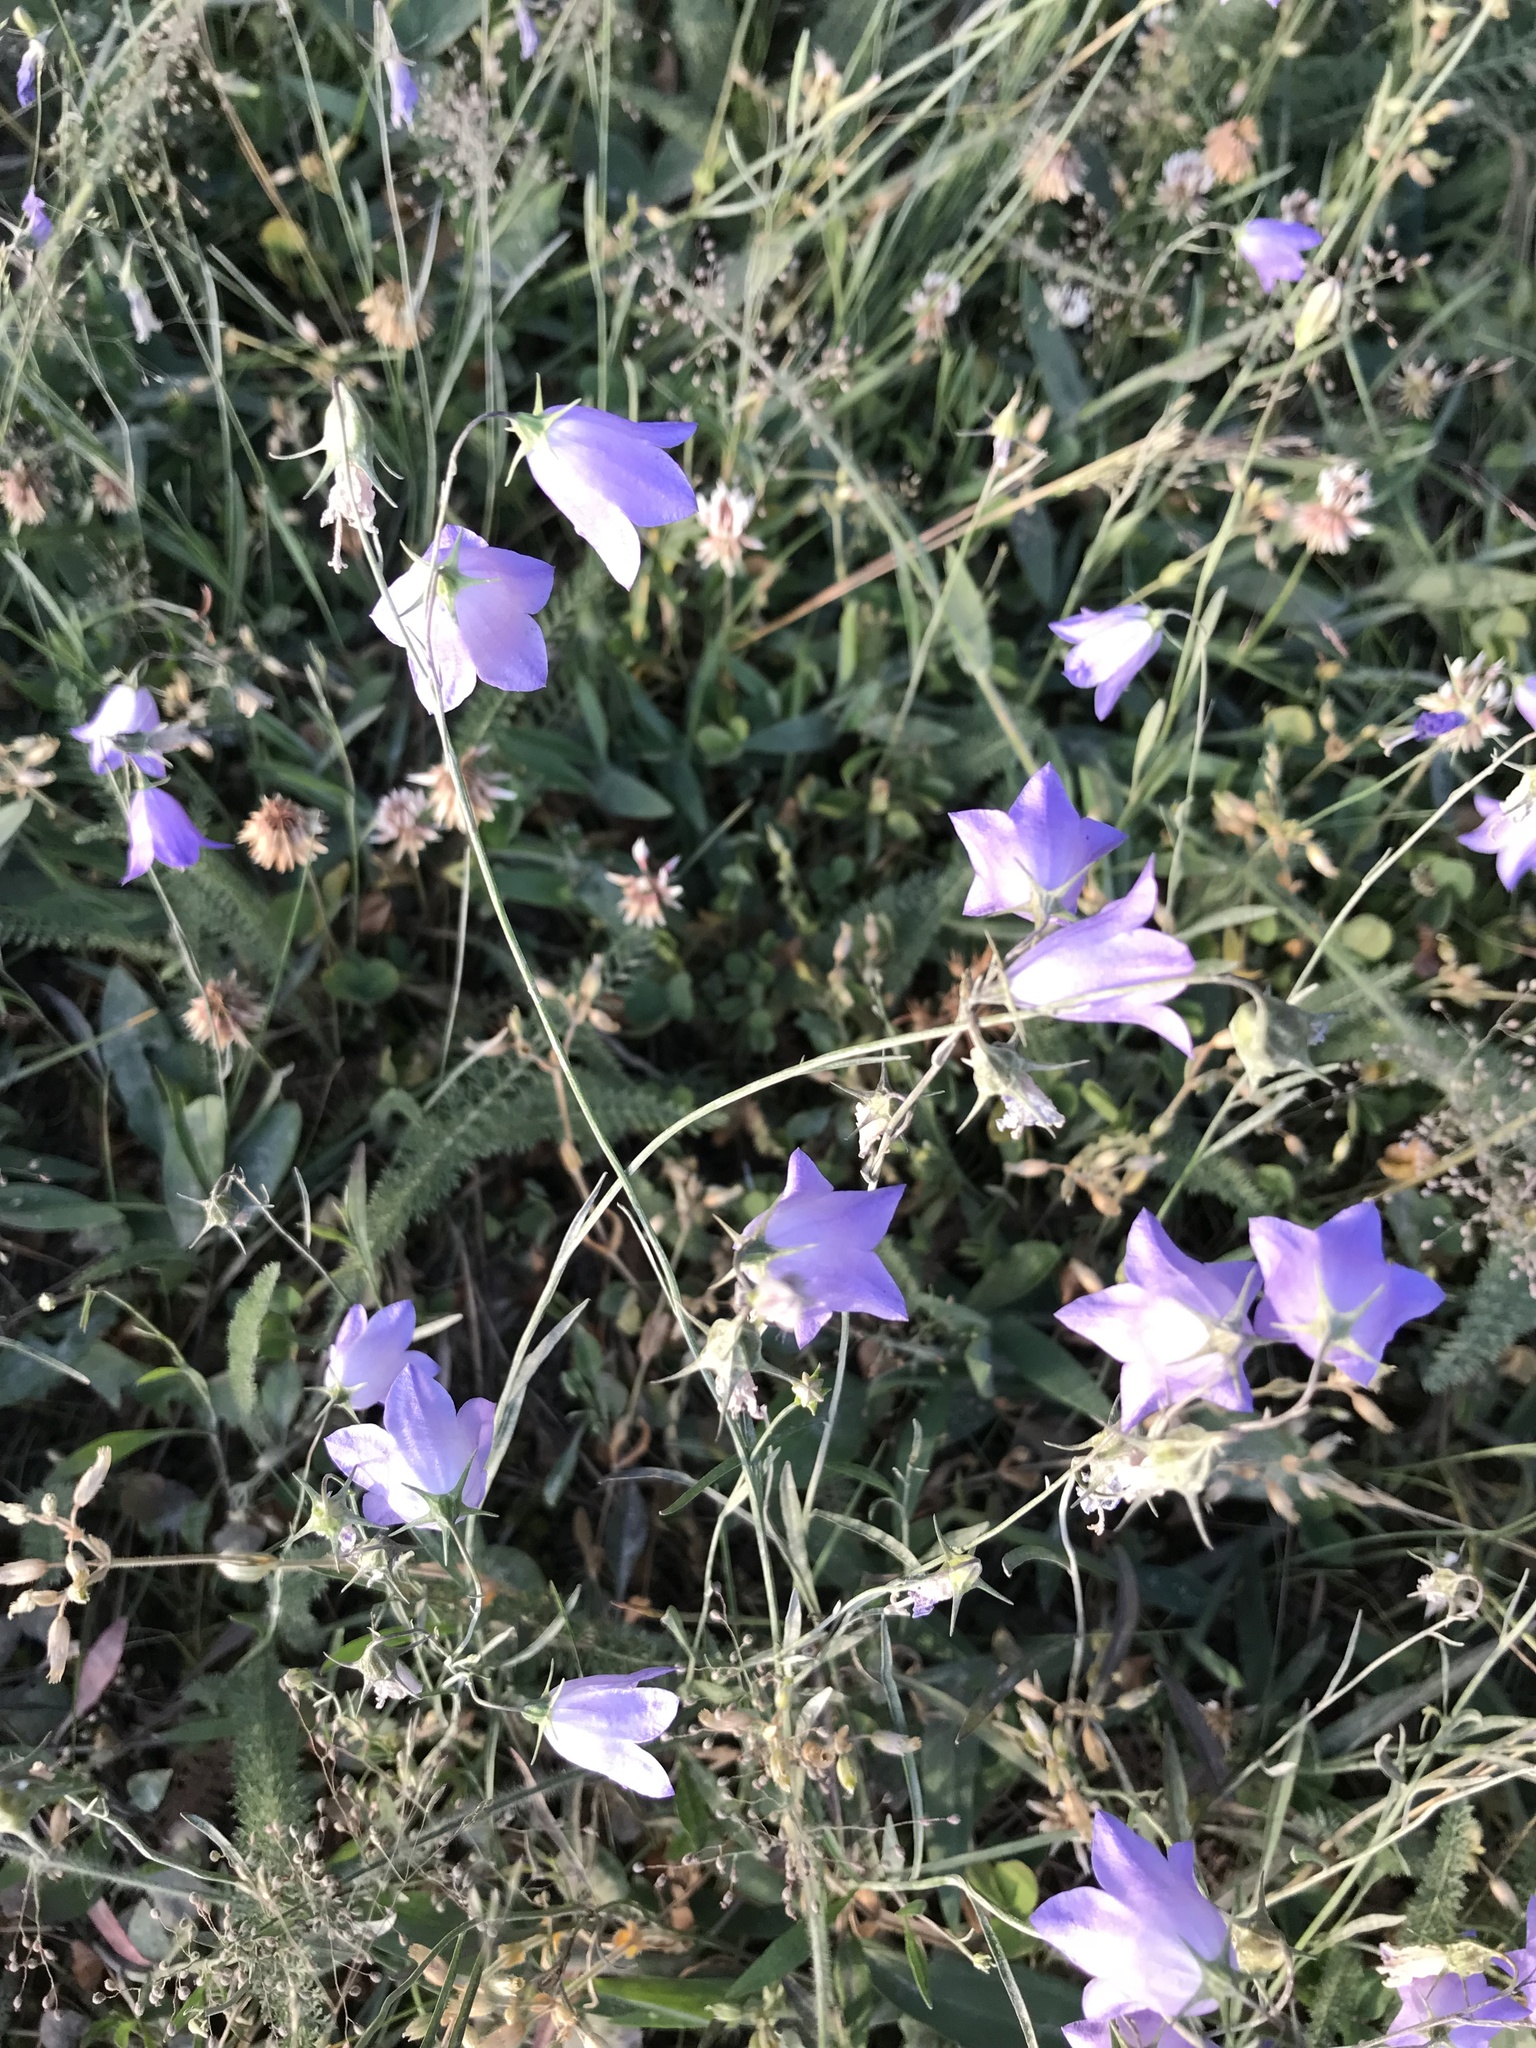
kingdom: Plantae
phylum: Tracheophyta
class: Magnoliopsida
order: Asterales
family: Campanulaceae
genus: Campanula
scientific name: Campanula
